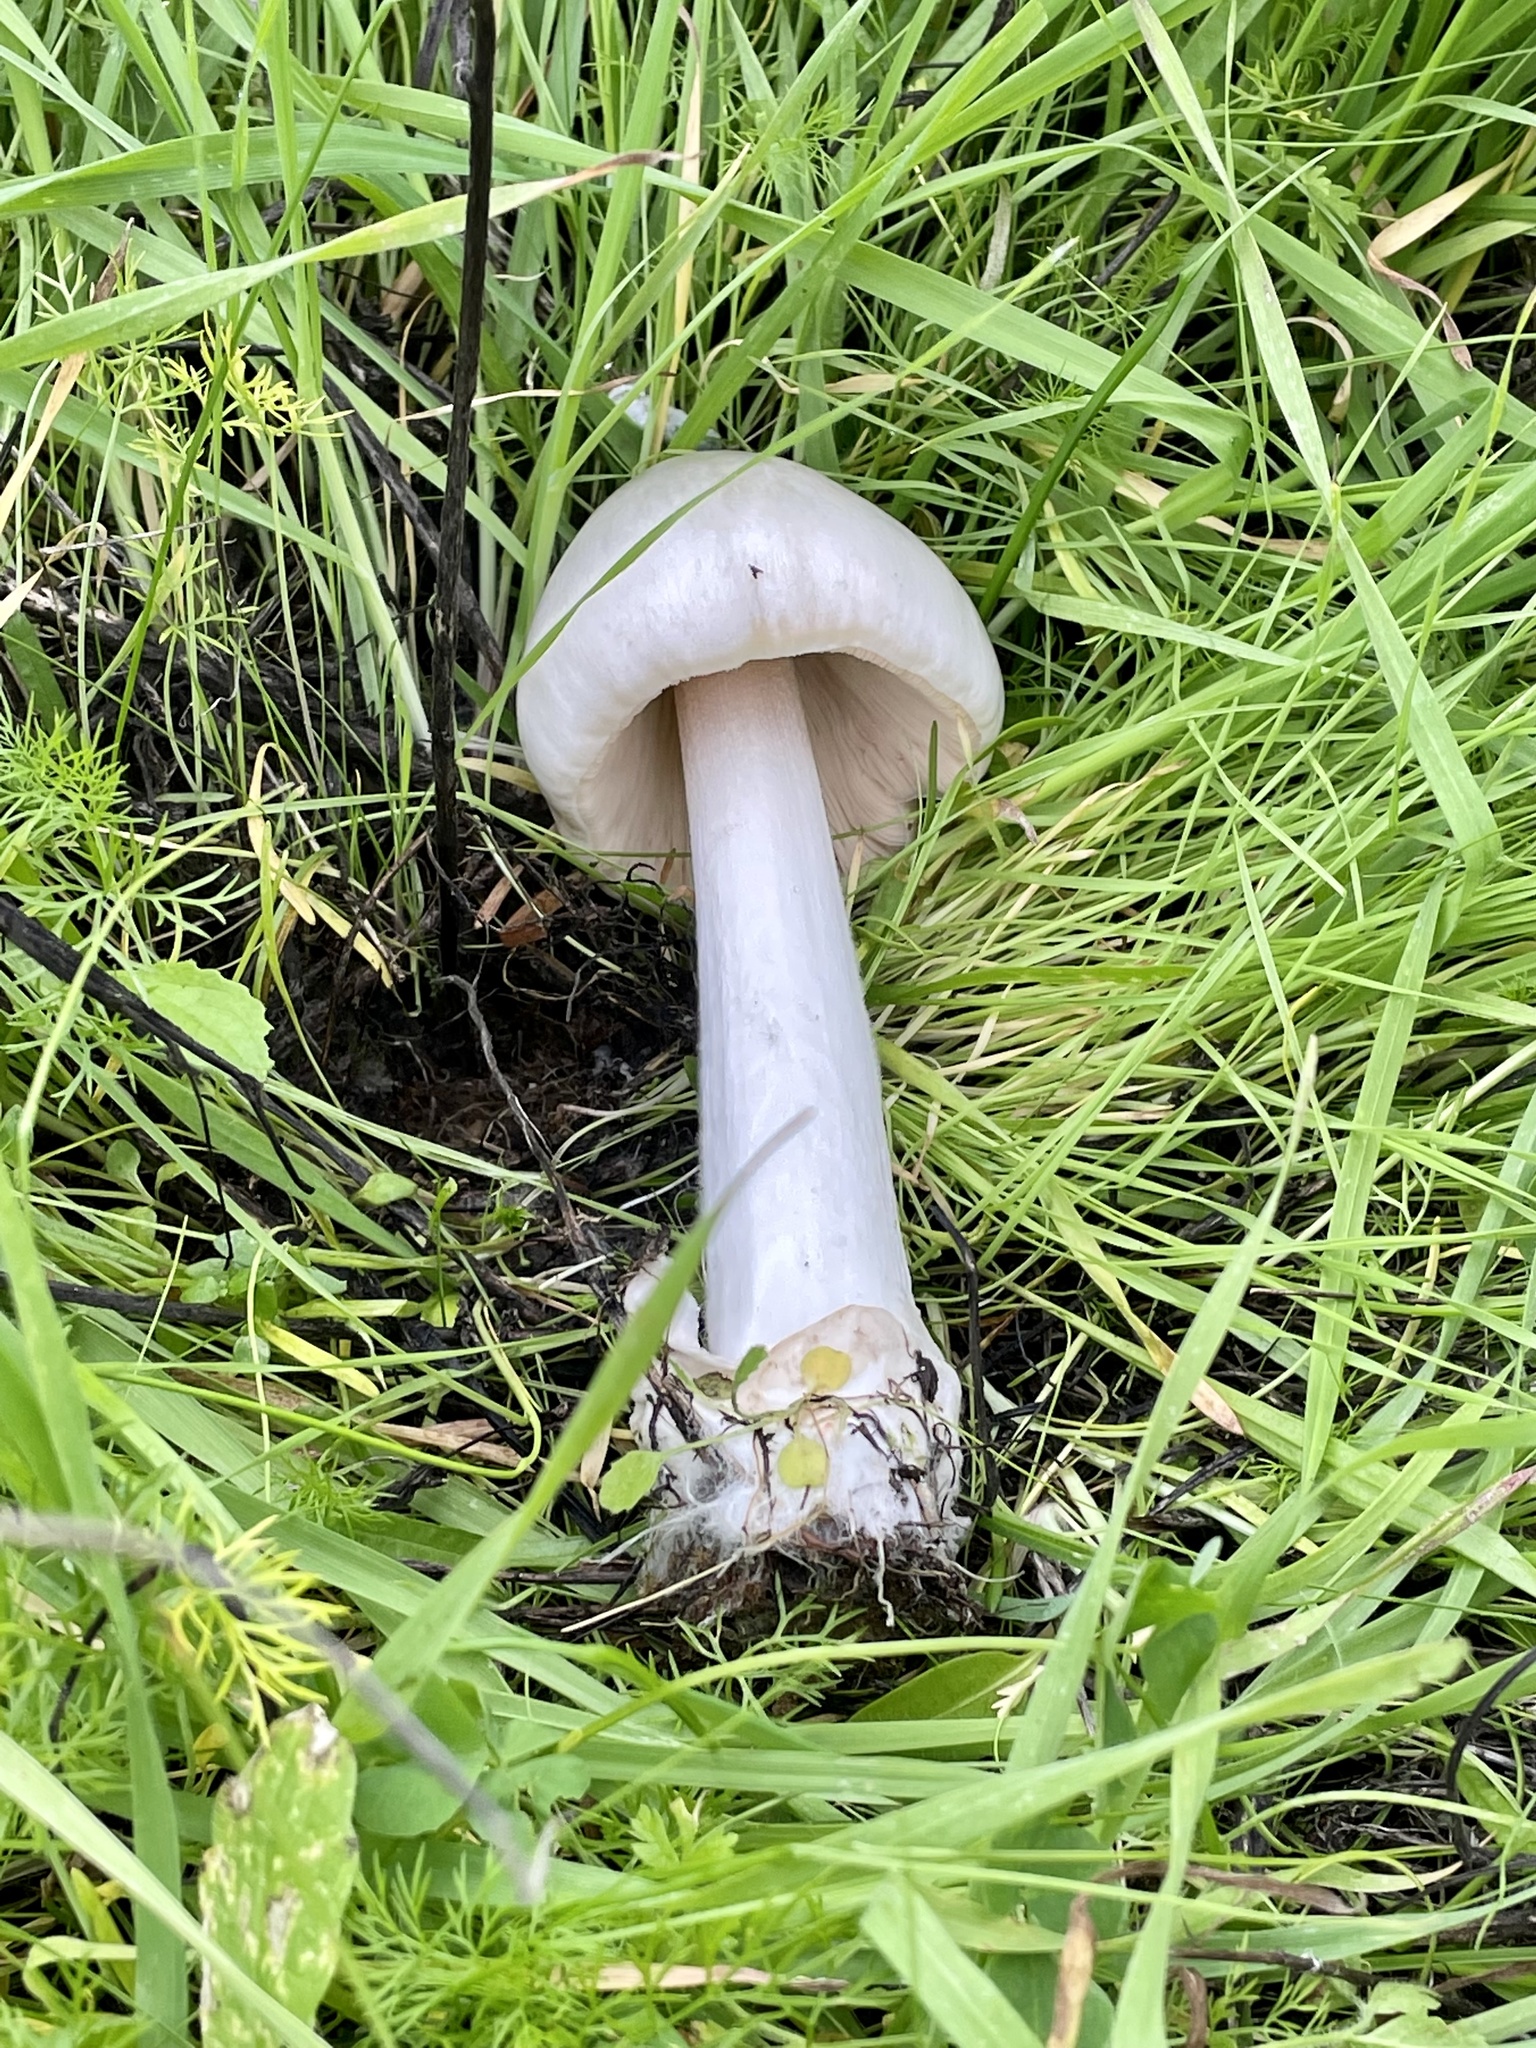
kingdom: Fungi
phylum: Basidiomycota
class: Agaricomycetes
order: Agaricales
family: Psathyrellaceae
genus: Coprinopsis
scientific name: Coprinopsis atramentaria
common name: Common ink-cap
